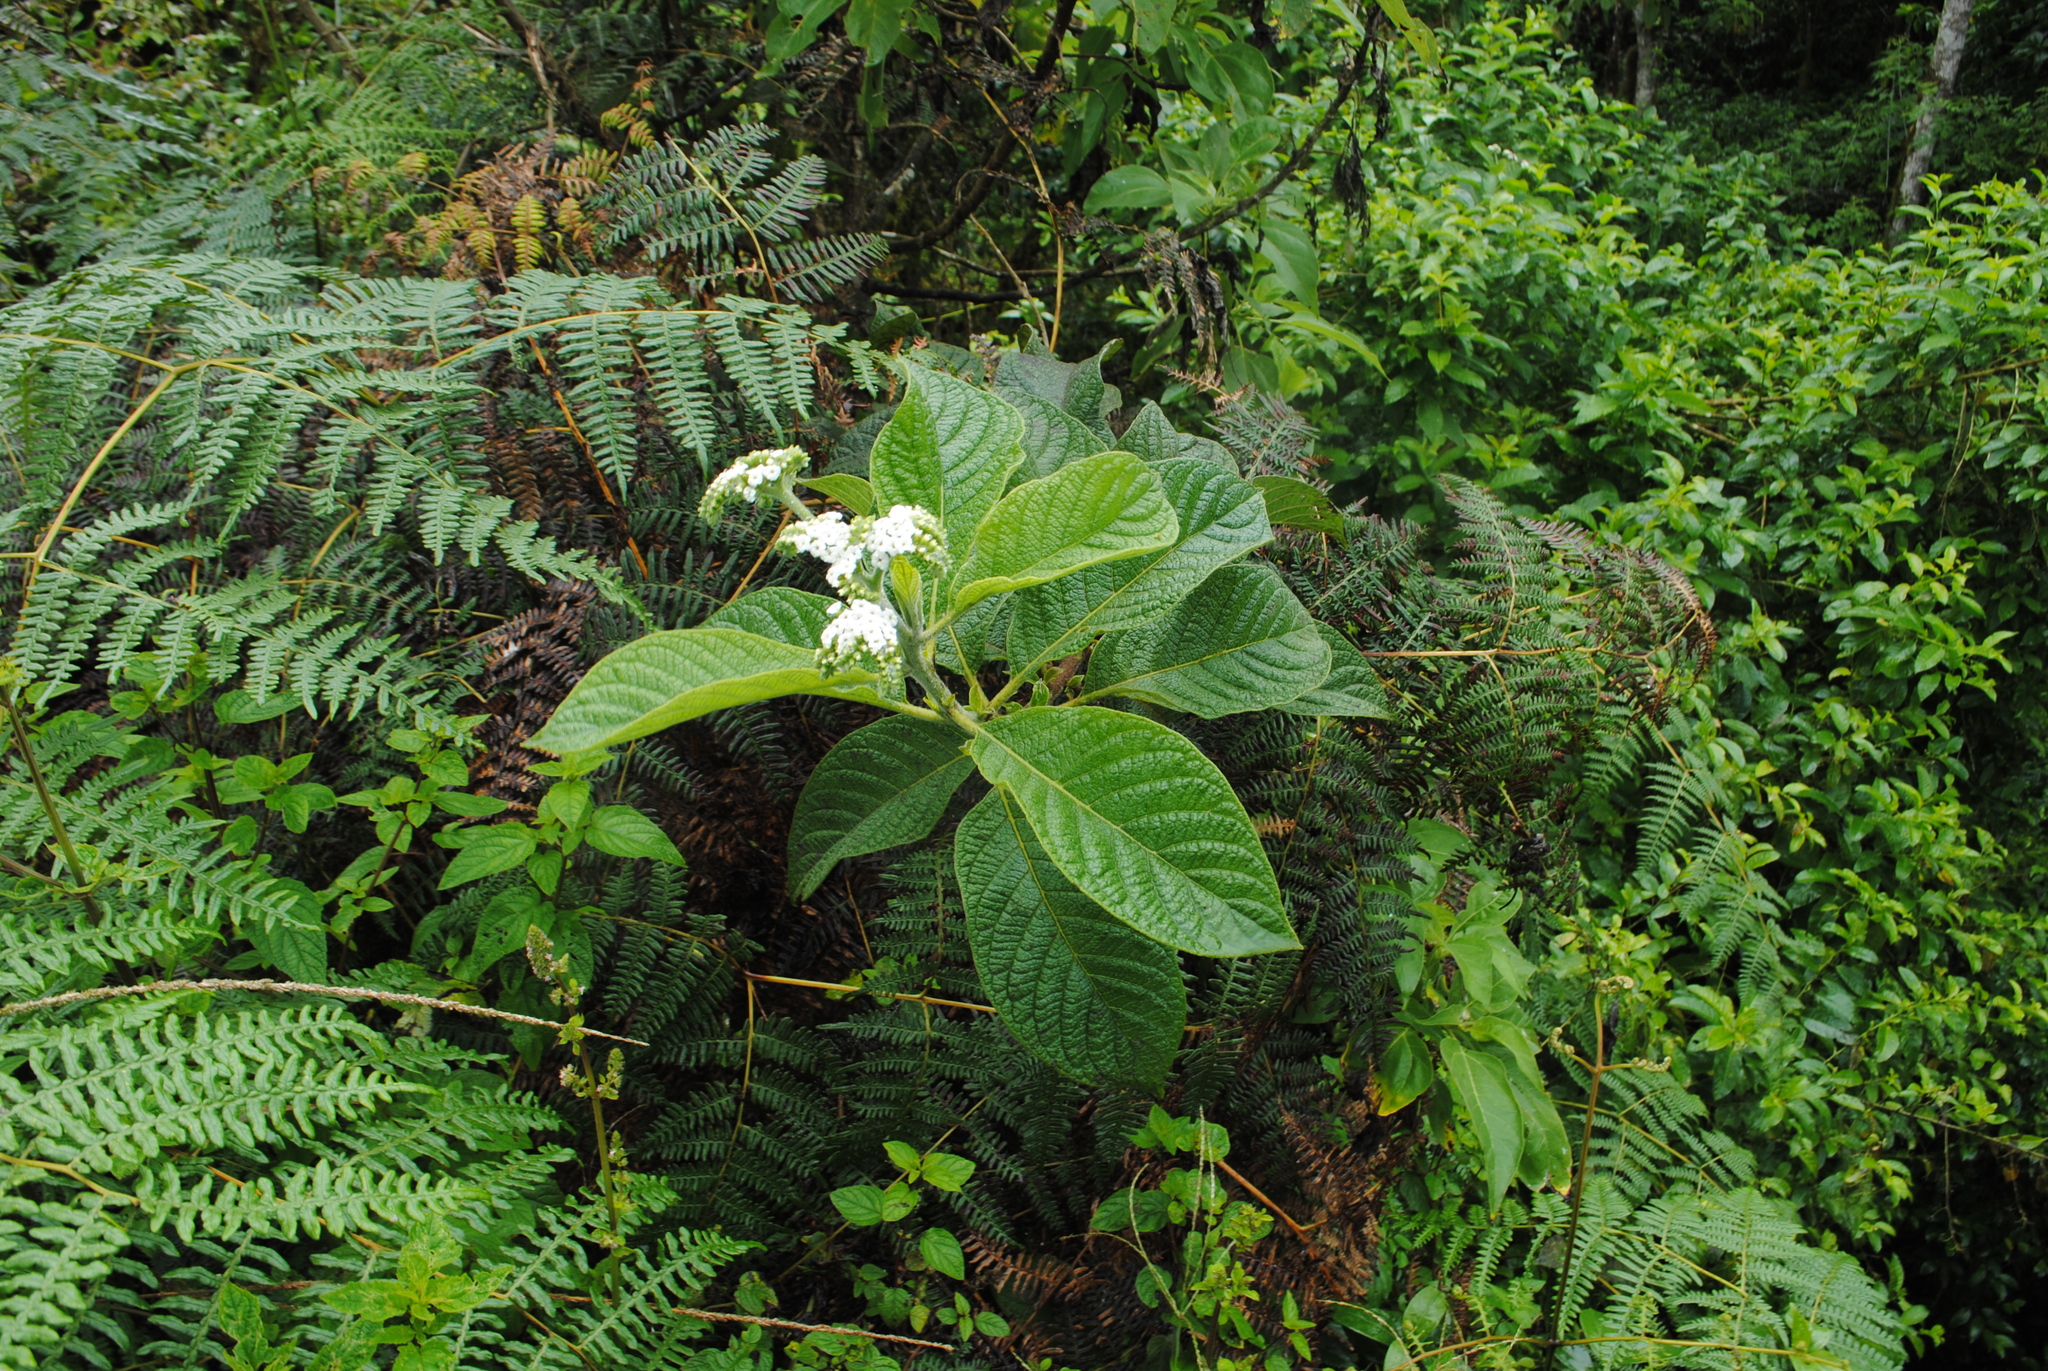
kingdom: Plantae
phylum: Tracheophyta
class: Polypodiopsida
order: Polypodiales
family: Dennstaedtiaceae
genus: Pteridium
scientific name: Pteridium esculentum
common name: Bracken fern
